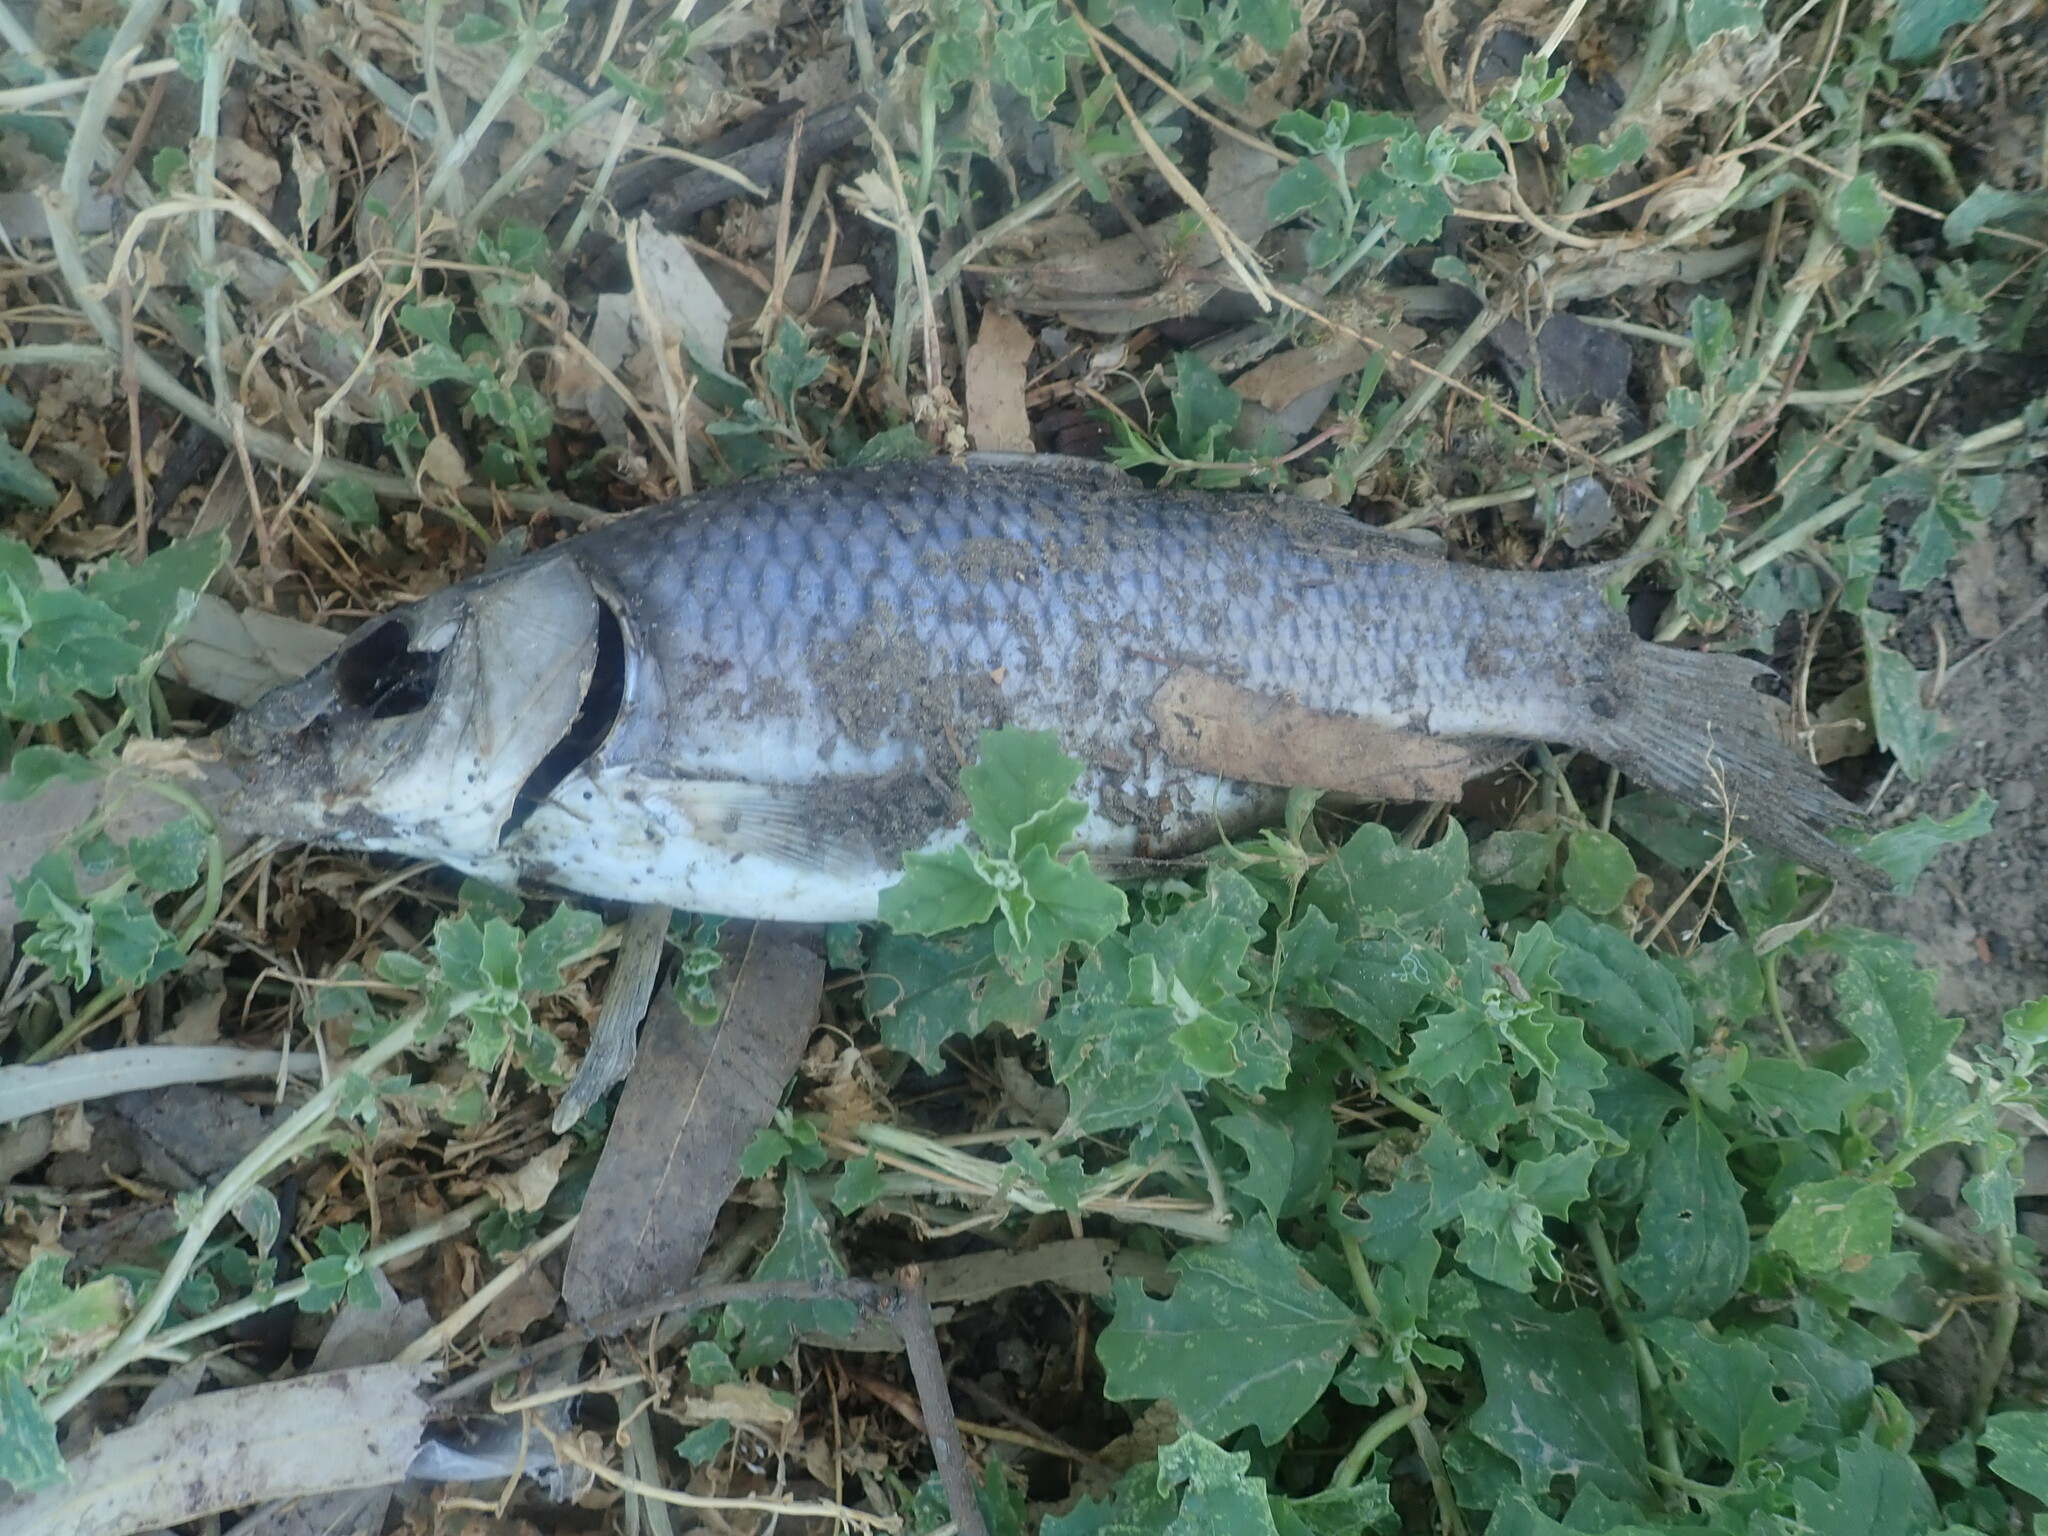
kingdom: Animalia
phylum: Chordata
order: Cypriniformes
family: Cyprinidae
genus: Cyprinus
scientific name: Cyprinus carpio
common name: Common carp
